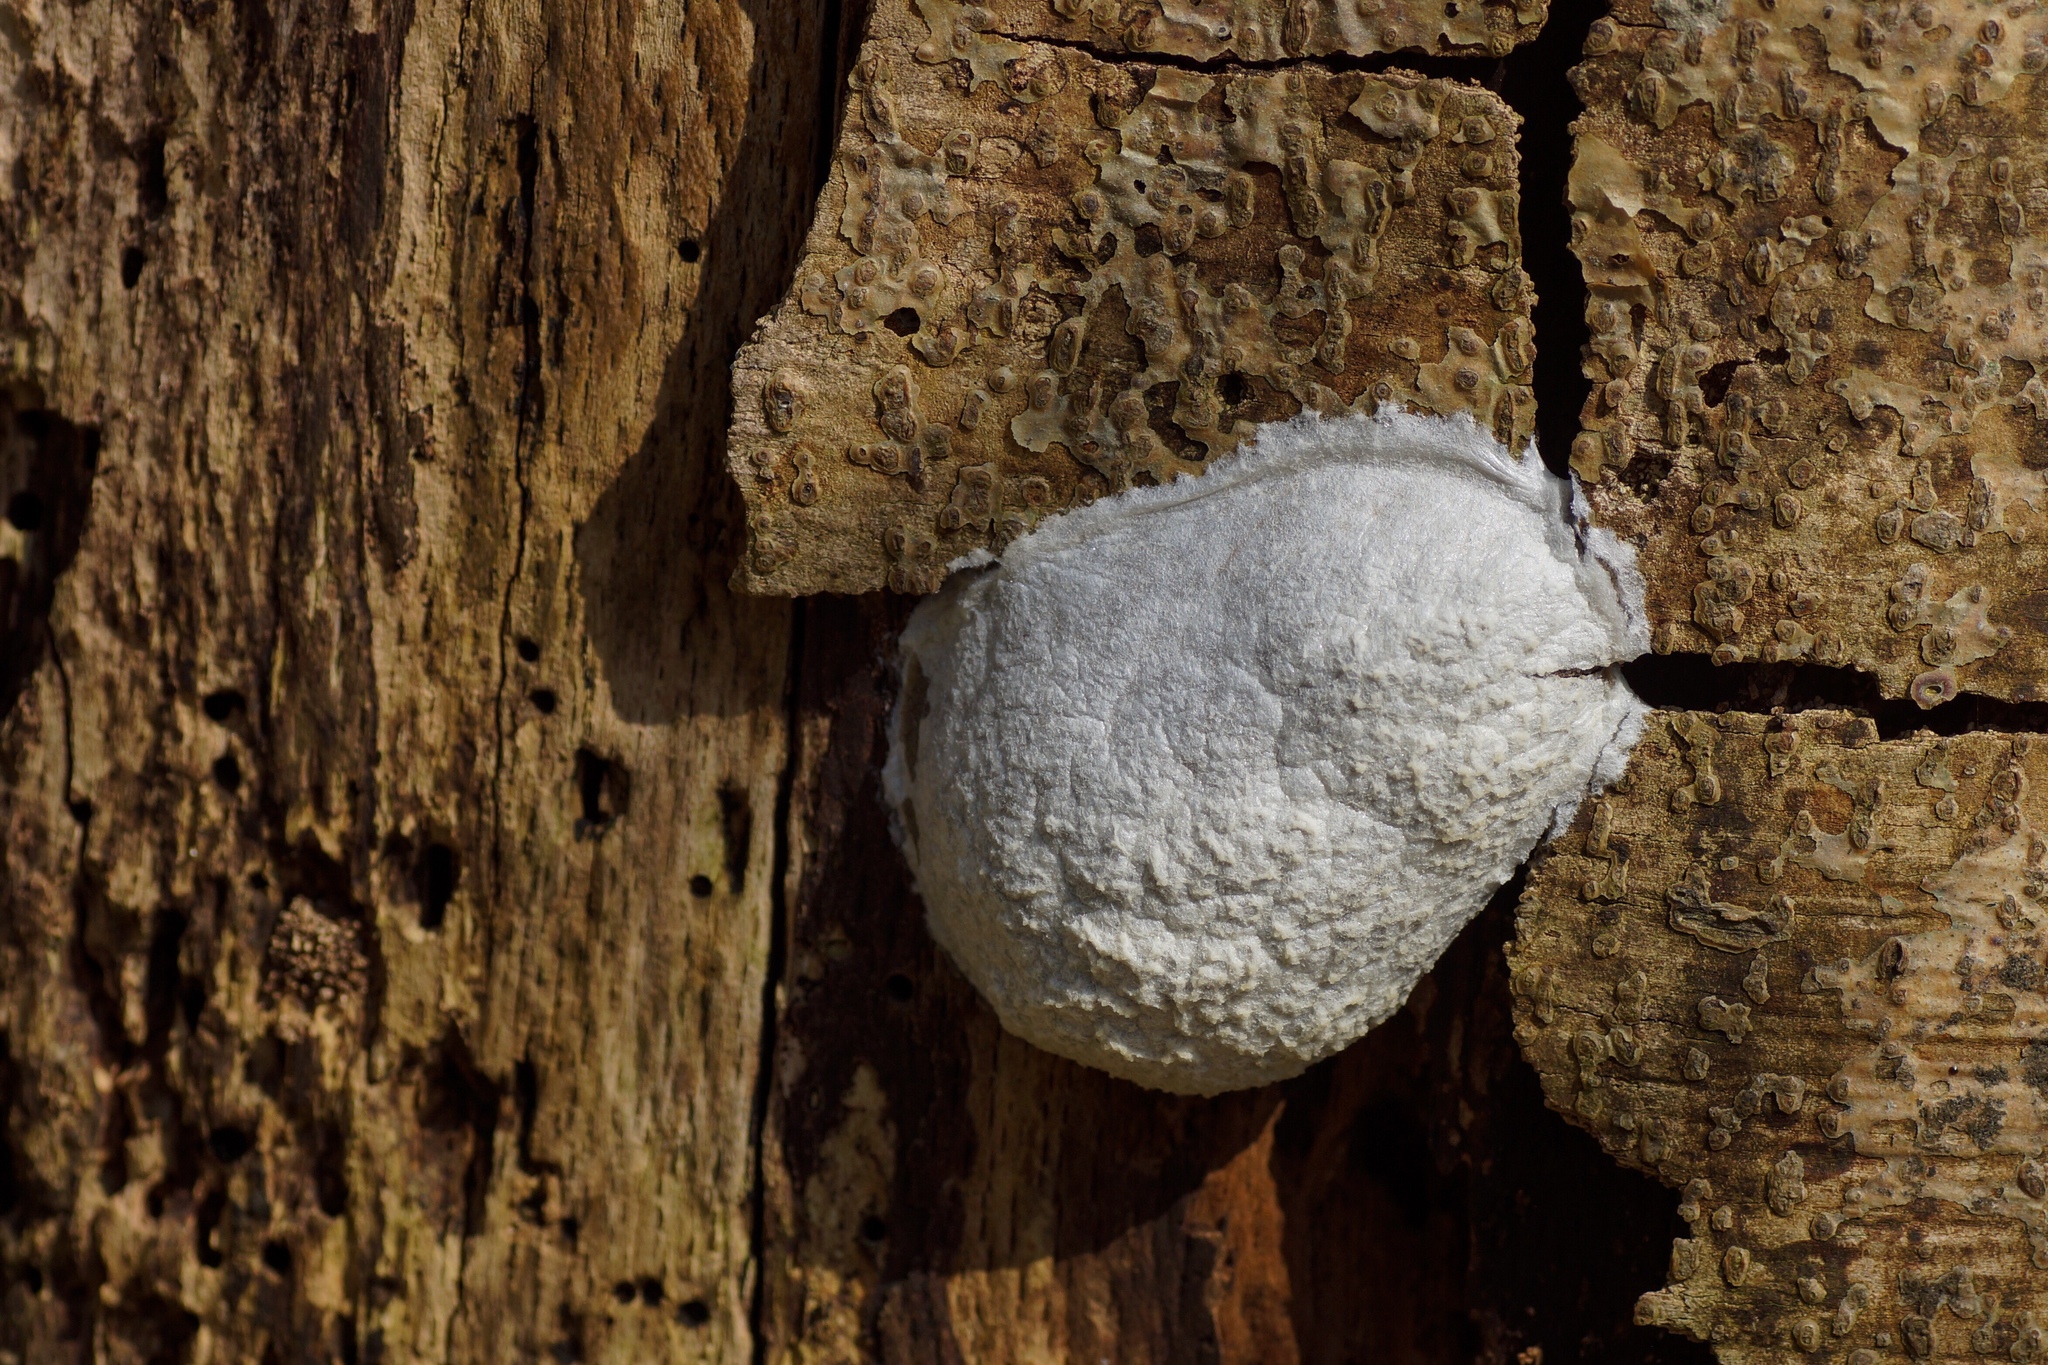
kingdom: Protozoa
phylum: Mycetozoa
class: Myxomycetes
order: Cribrariales
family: Tubiferaceae
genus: Reticularia
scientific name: Reticularia lycoperdon
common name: False puffball
